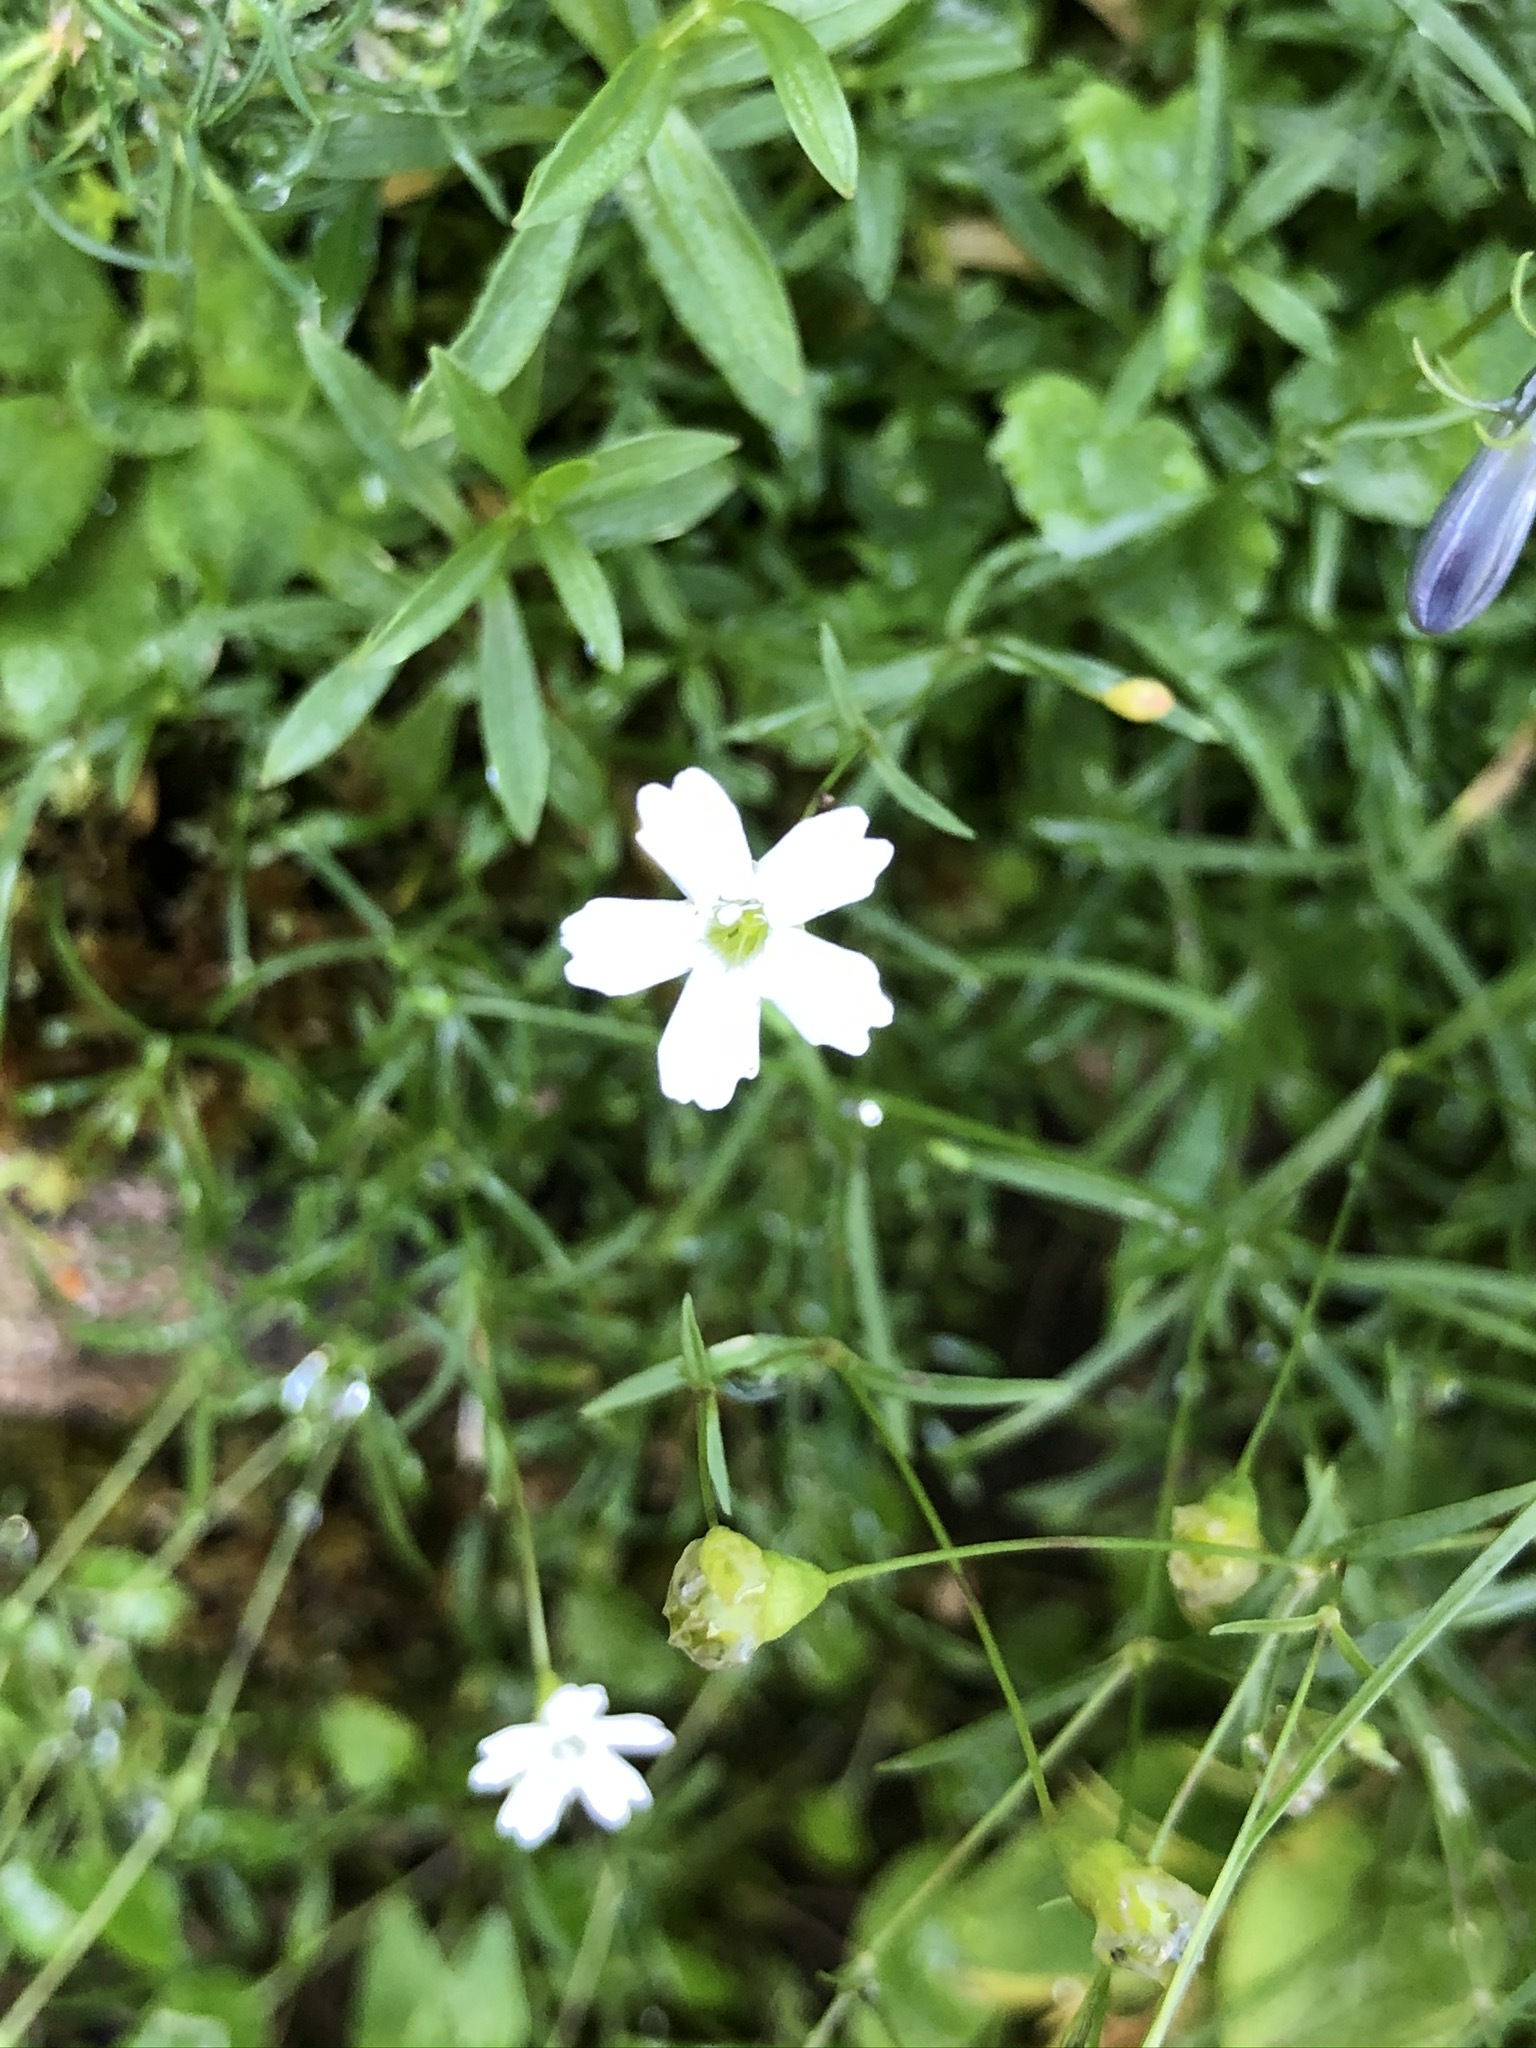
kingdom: Plantae
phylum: Tracheophyta
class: Magnoliopsida
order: Caryophyllales
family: Caryophyllaceae
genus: Heliosperma
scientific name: Heliosperma pusillum
